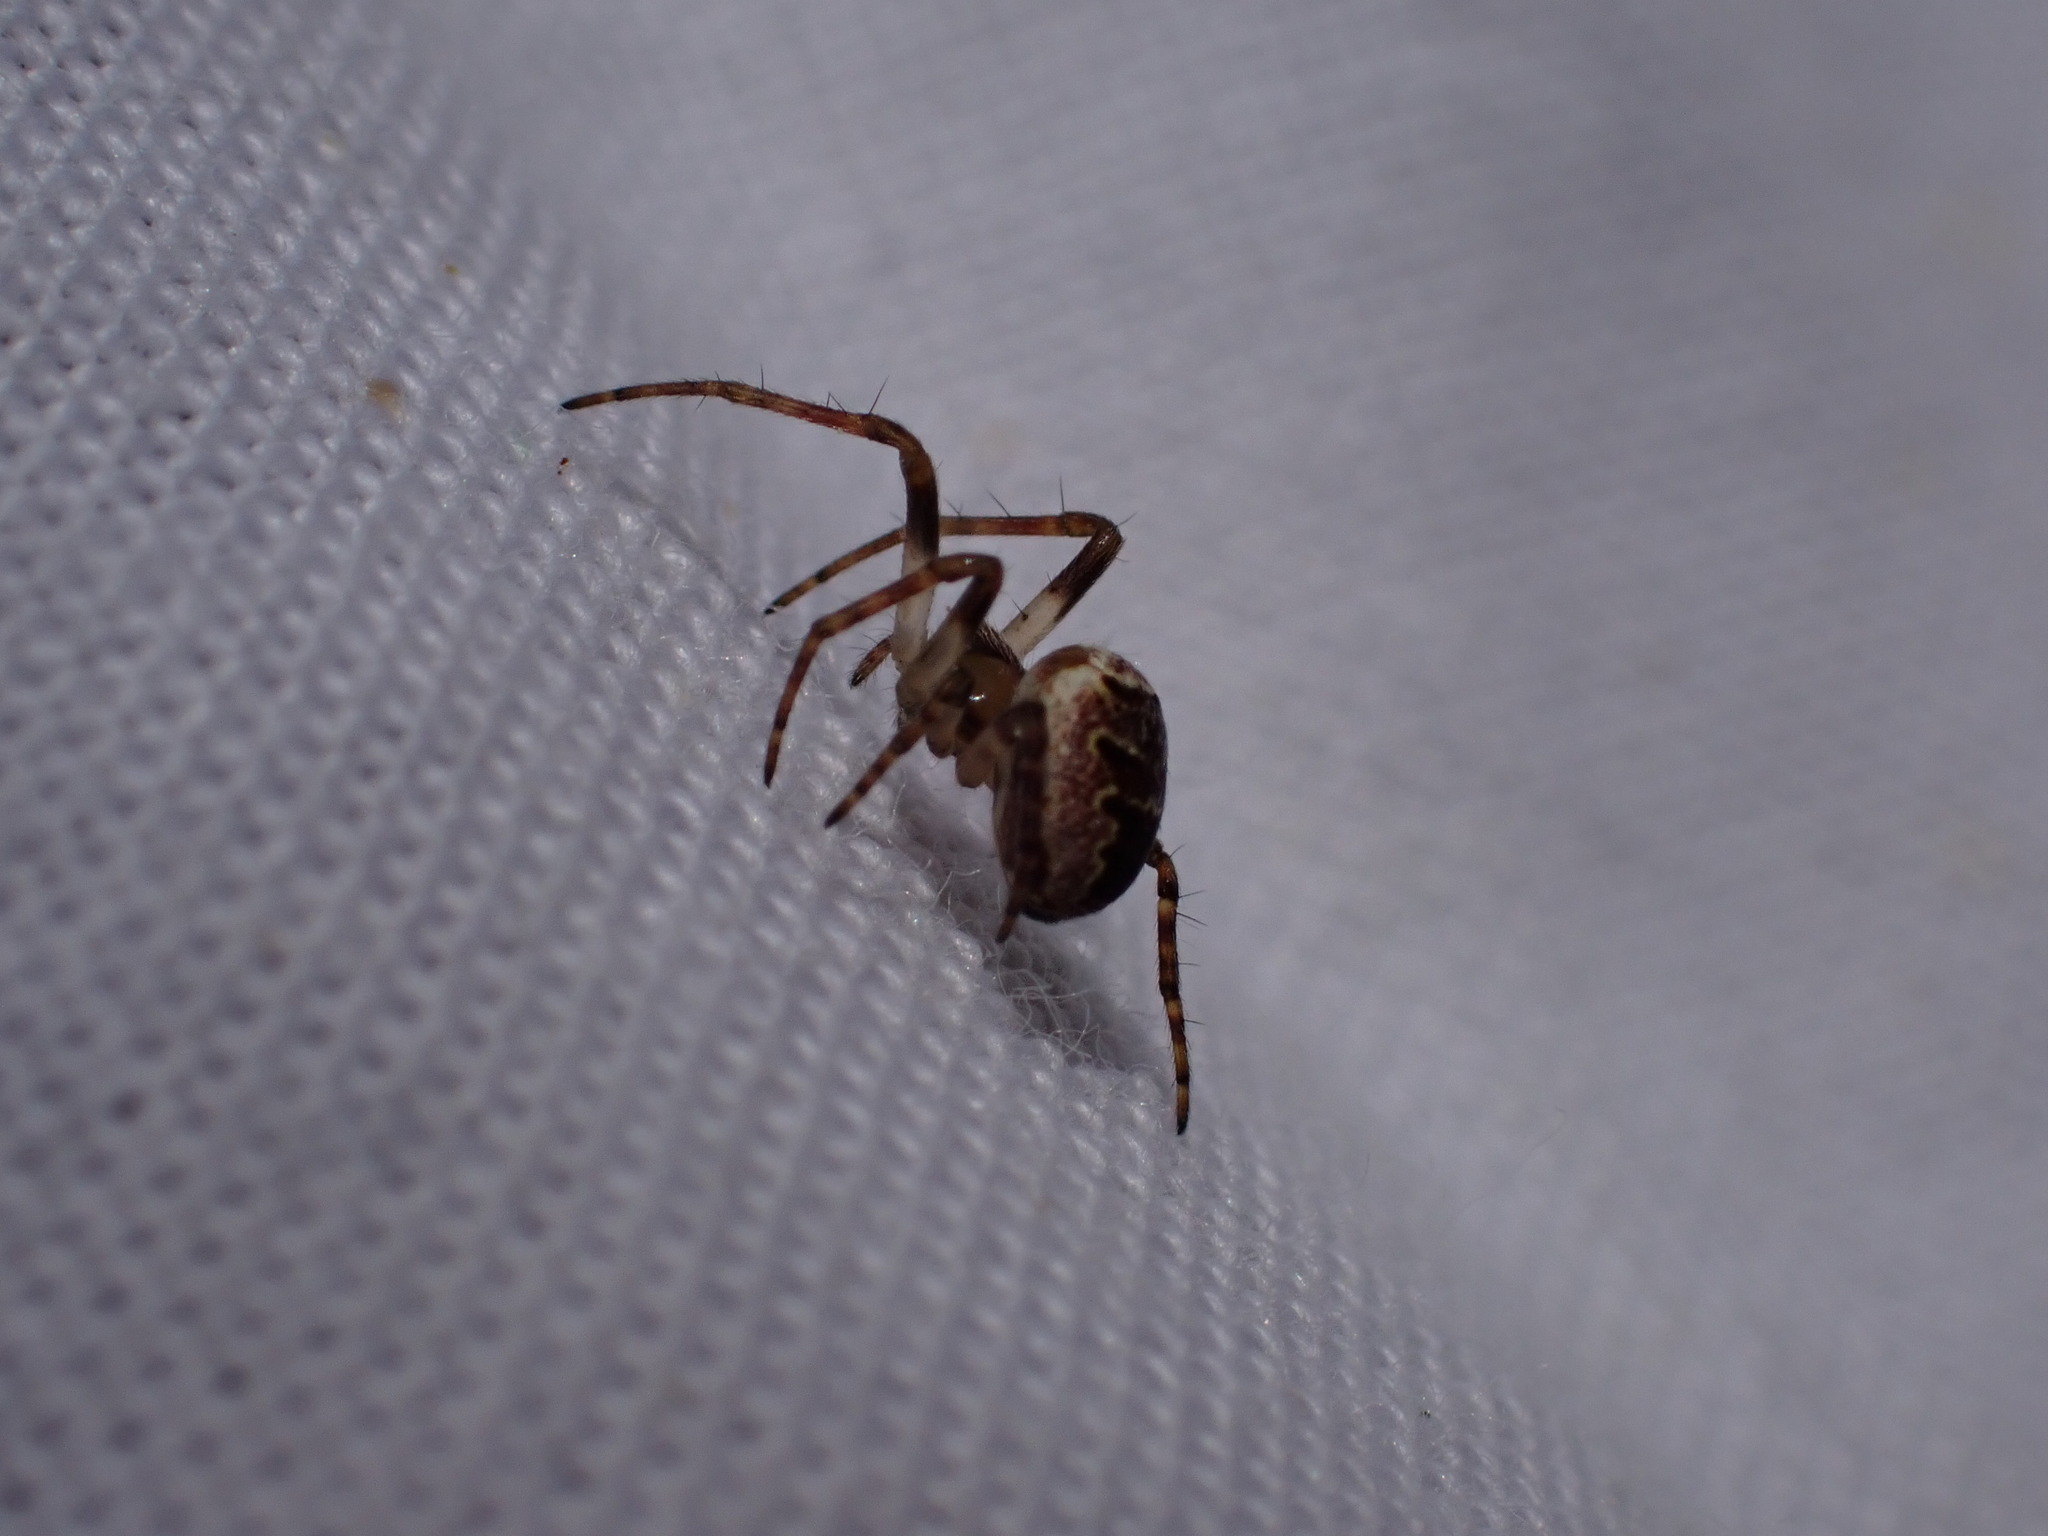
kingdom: Animalia
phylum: Arthropoda
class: Arachnida
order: Araneae
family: Araneidae
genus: Zilla
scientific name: Zilla diodia
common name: Zilla diodia
